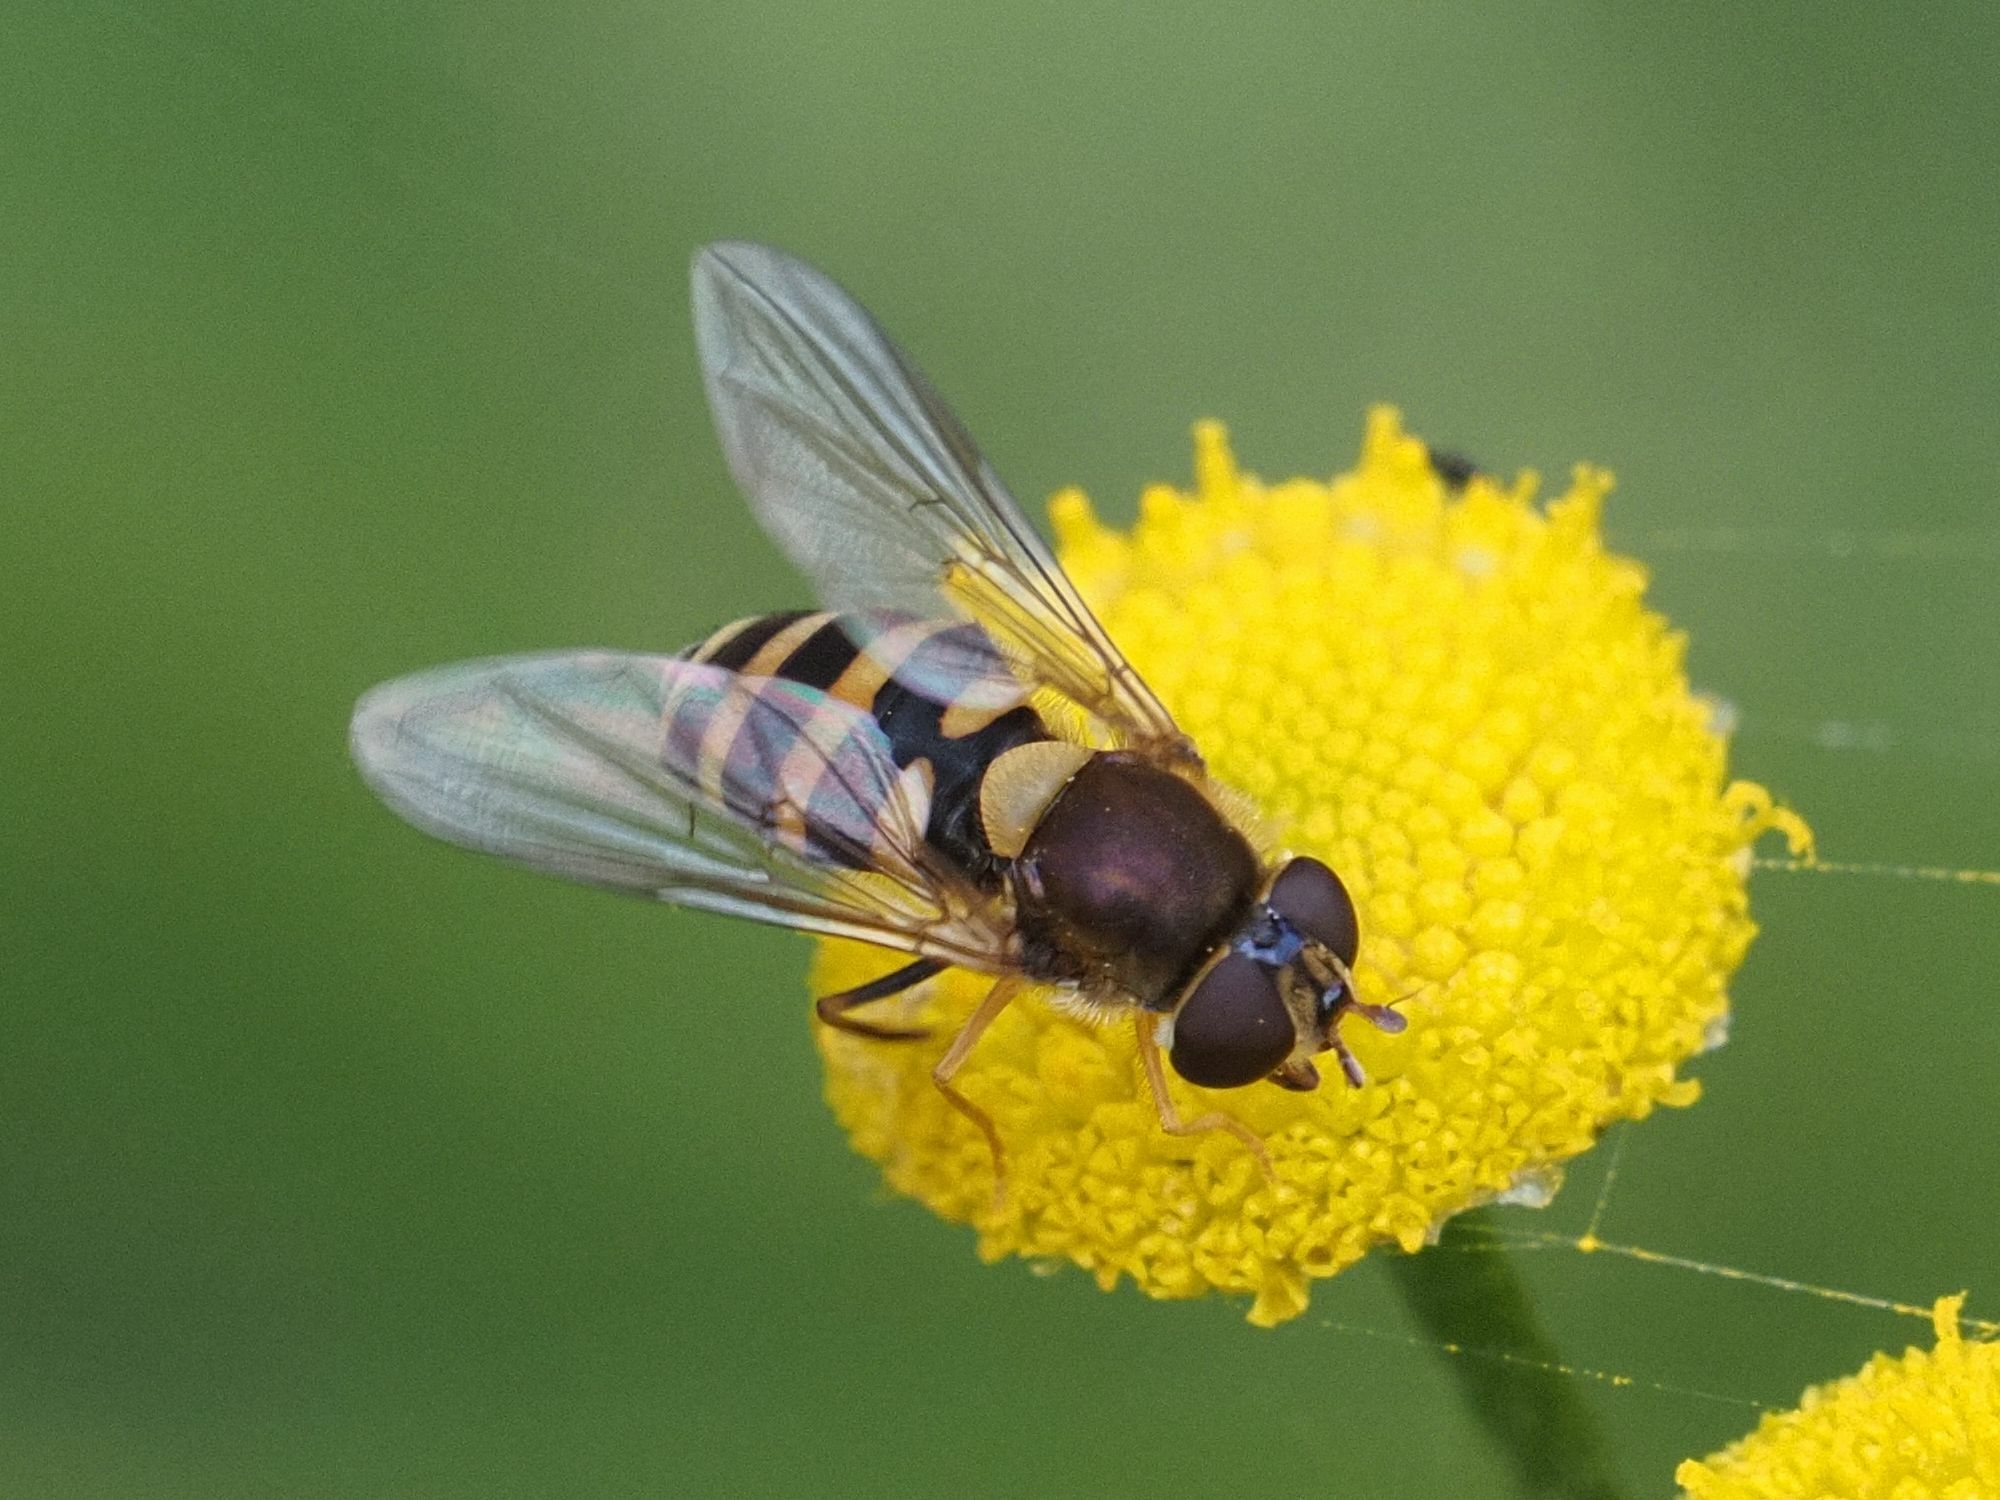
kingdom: Animalia
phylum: Arthropoda
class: Insecta
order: Diptera
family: Syrphidae
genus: Syrphus
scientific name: Syrphus
